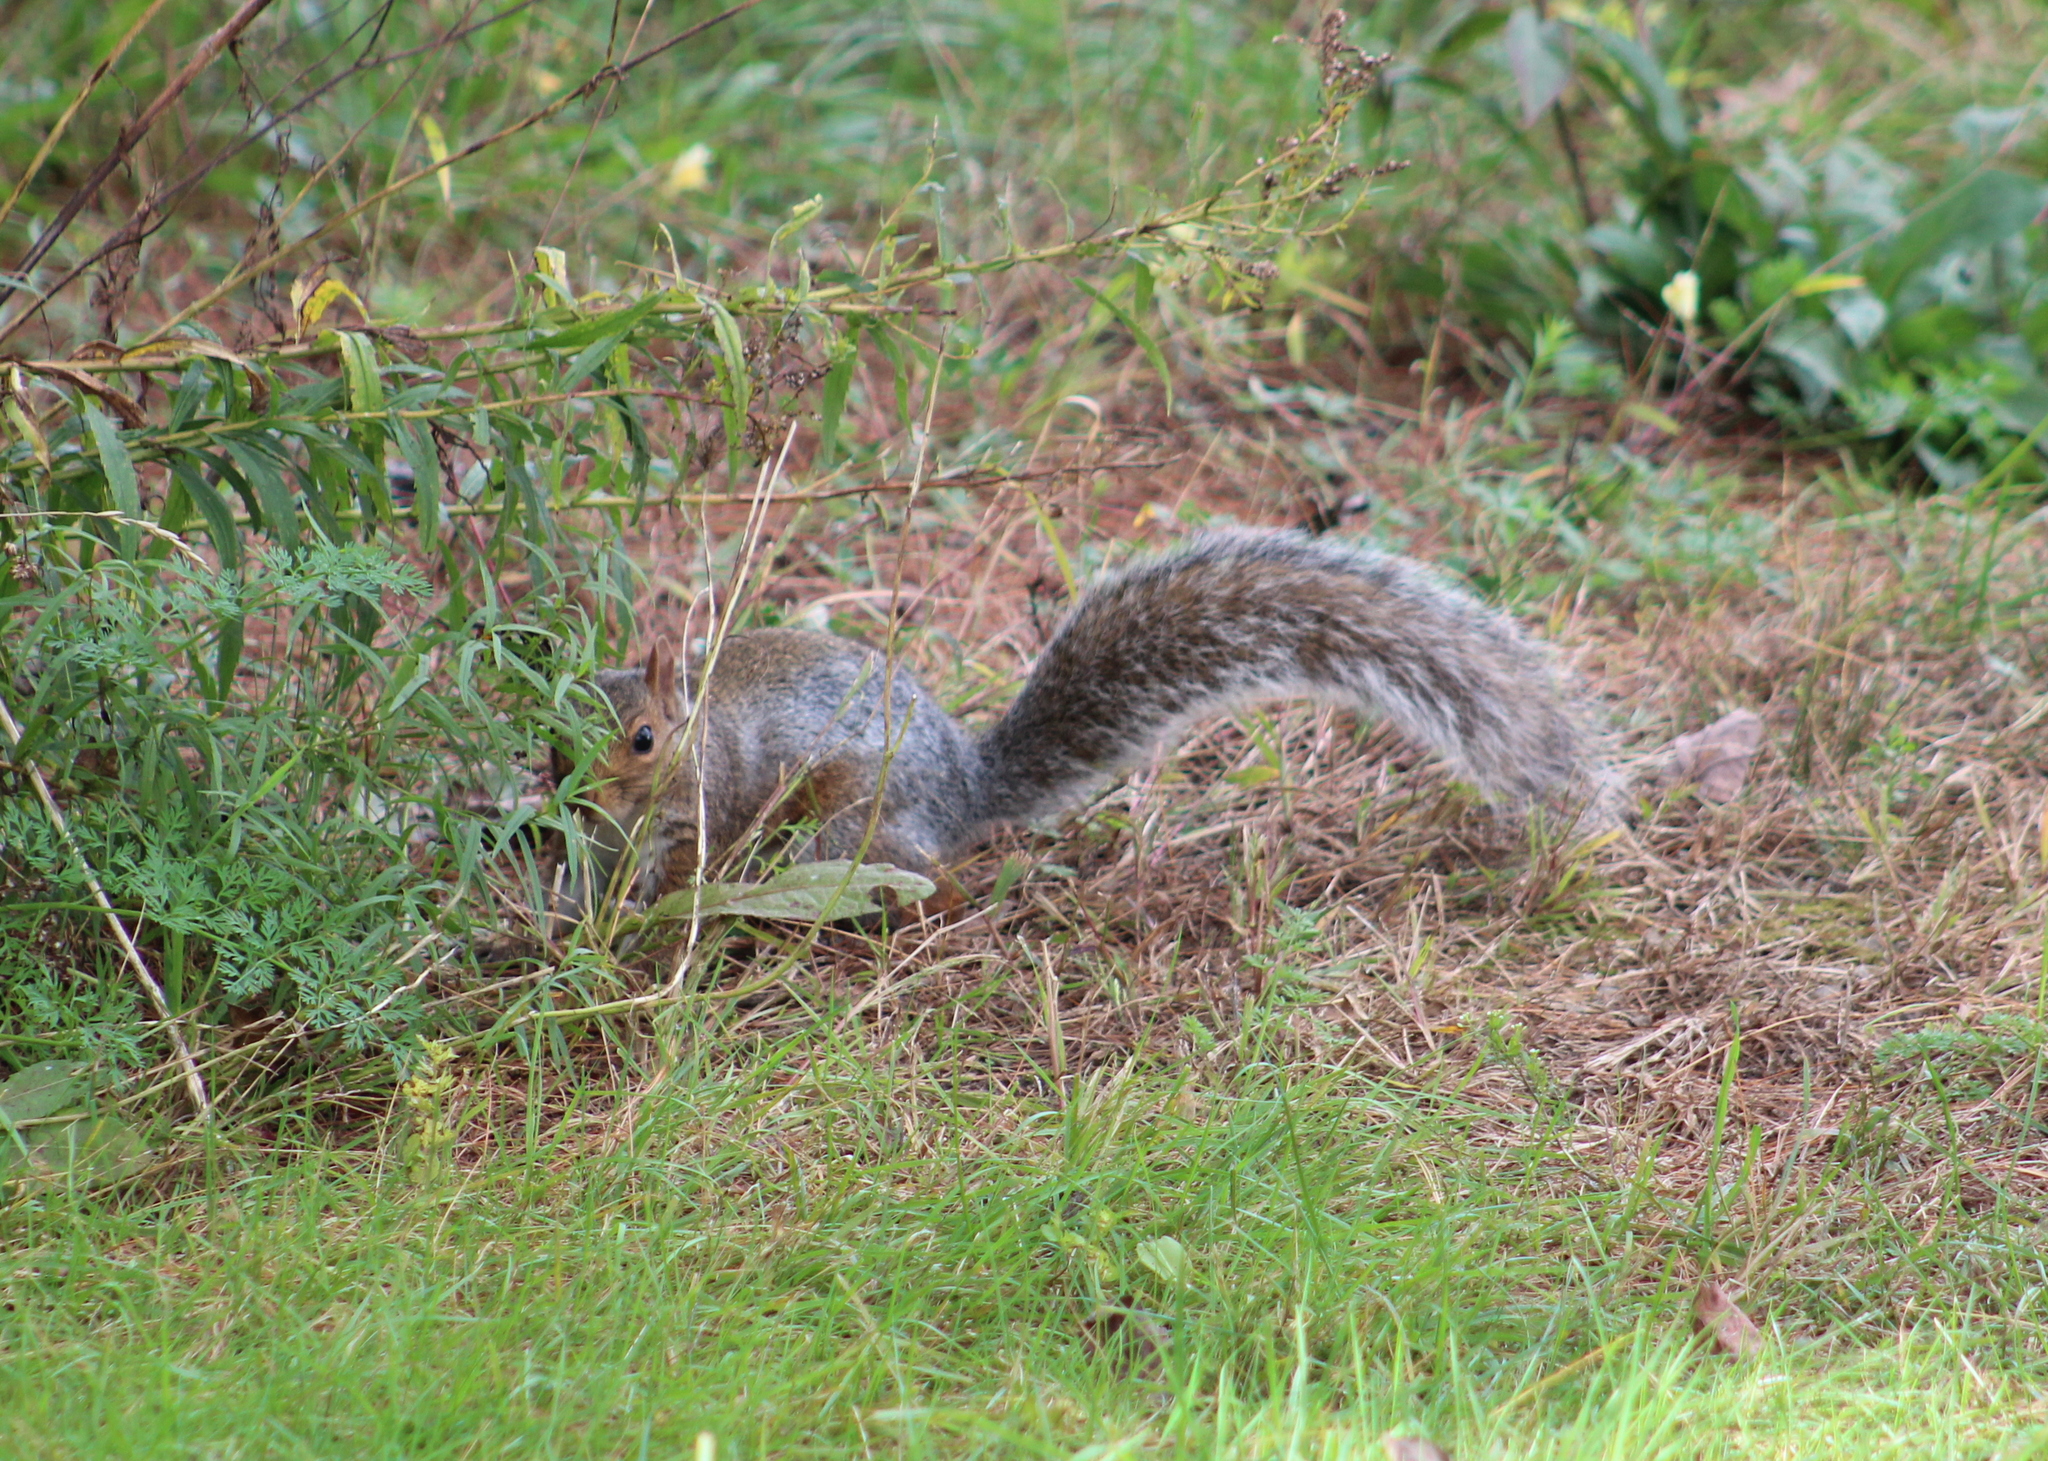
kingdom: Animalia
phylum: Chordata
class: Mammalia
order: Rodentia
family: Sciuridae
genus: Sciurus
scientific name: Sciurus carolinensis
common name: Eastern gray squirrel
